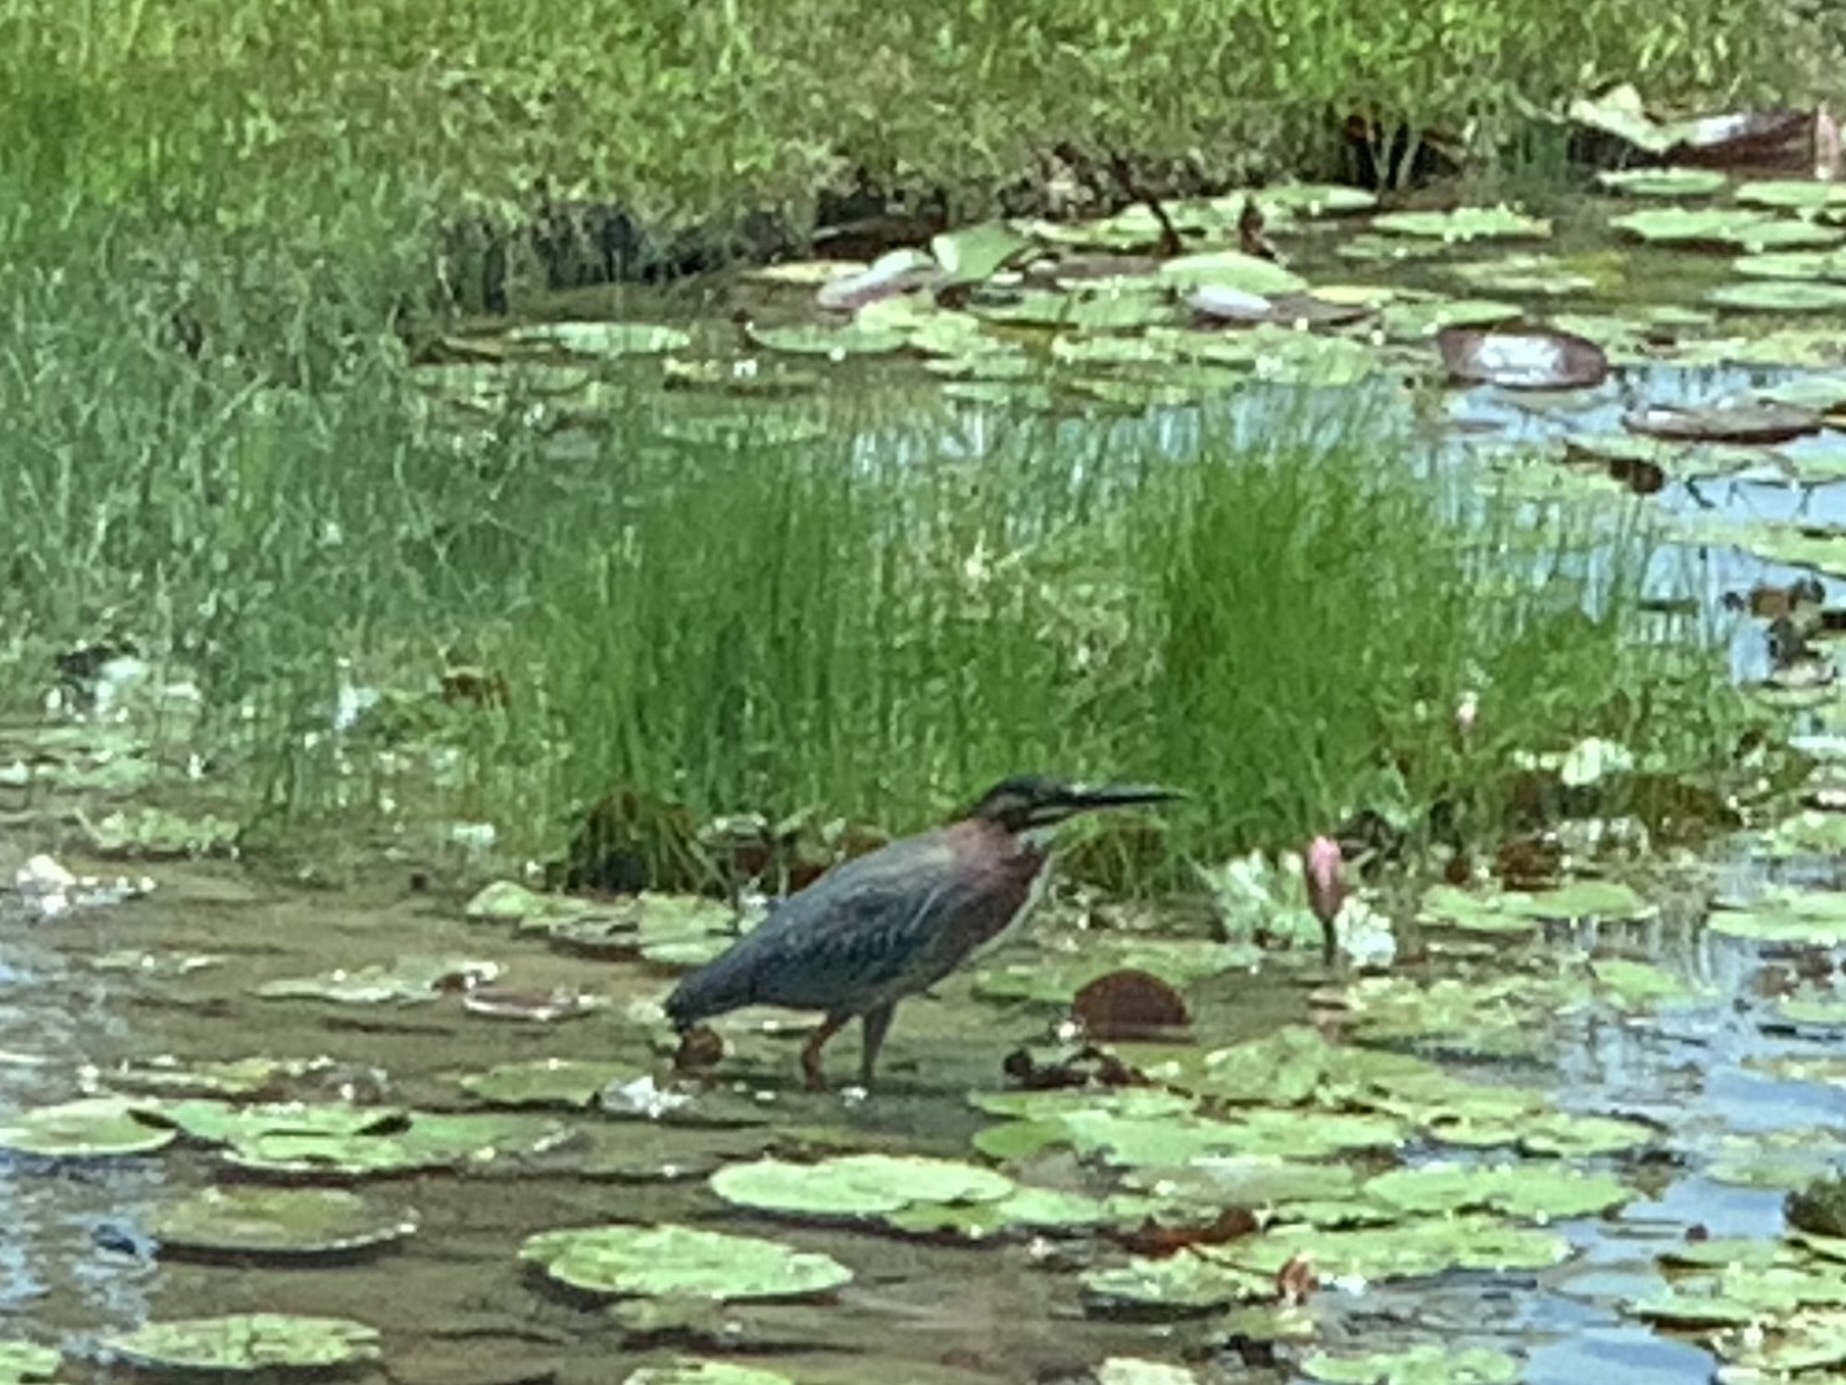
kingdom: Animalia
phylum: Chordata
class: Aves
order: Pelecaniformes
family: Ardeidae
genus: Butorides
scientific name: Butorides virescens
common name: Green heron
